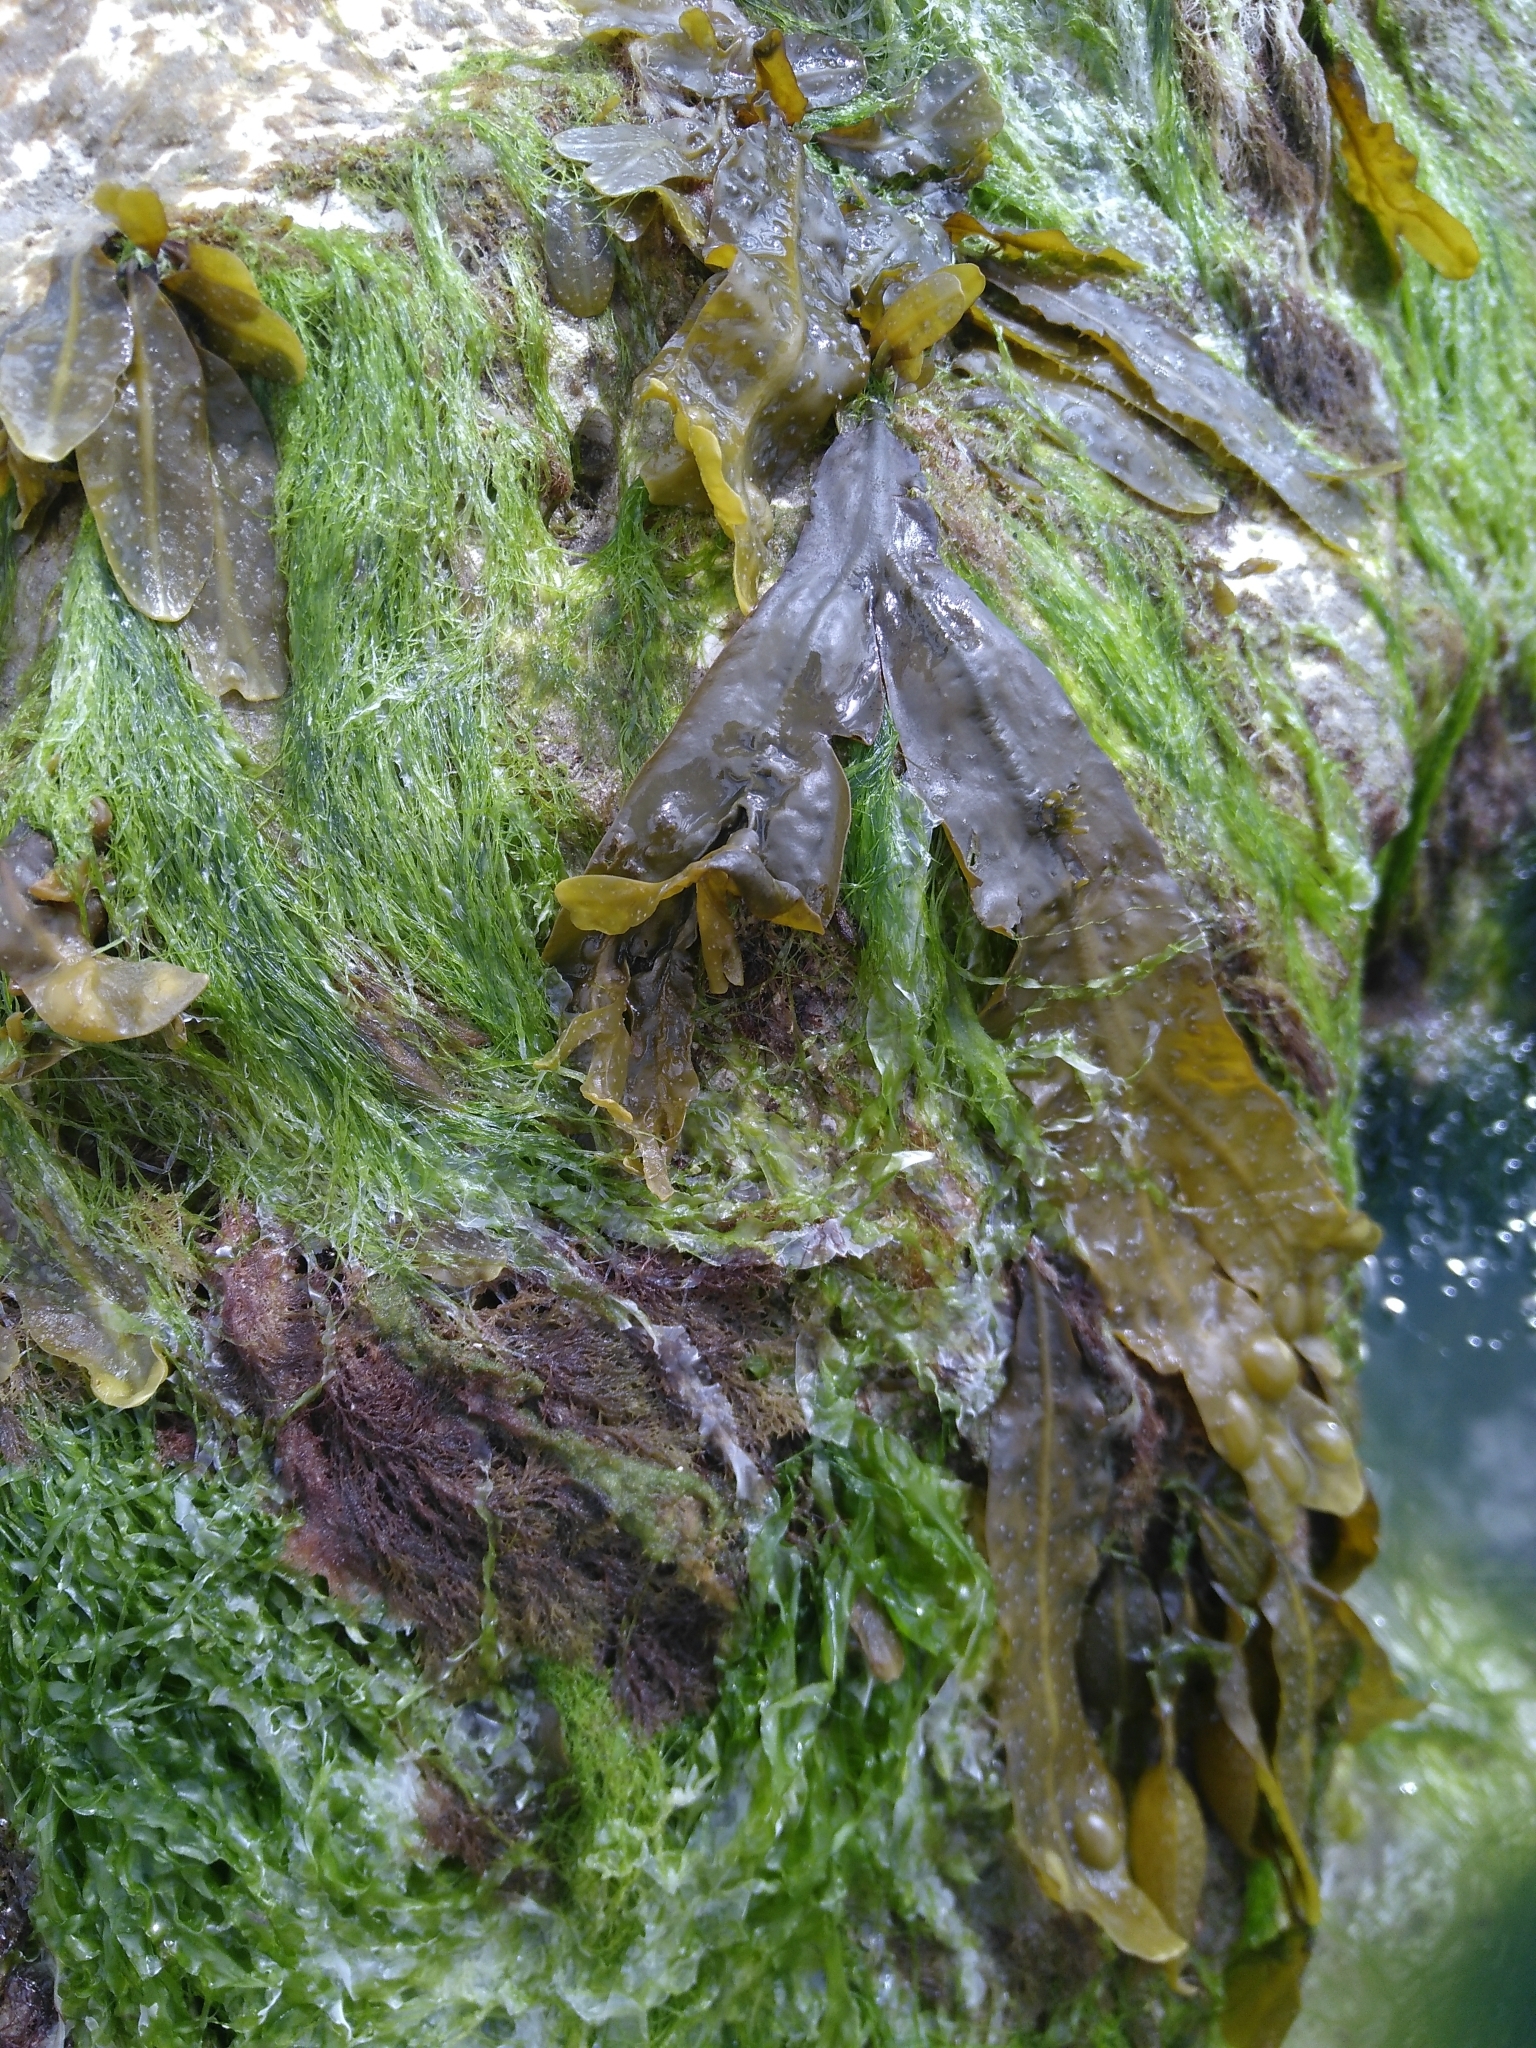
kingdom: Chromista
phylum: Ochrophyta
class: Phaeophyceae
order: Fucales
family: Fucaceae
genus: Fucus
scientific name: Fucus vesiculosus
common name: Bladder wrack
